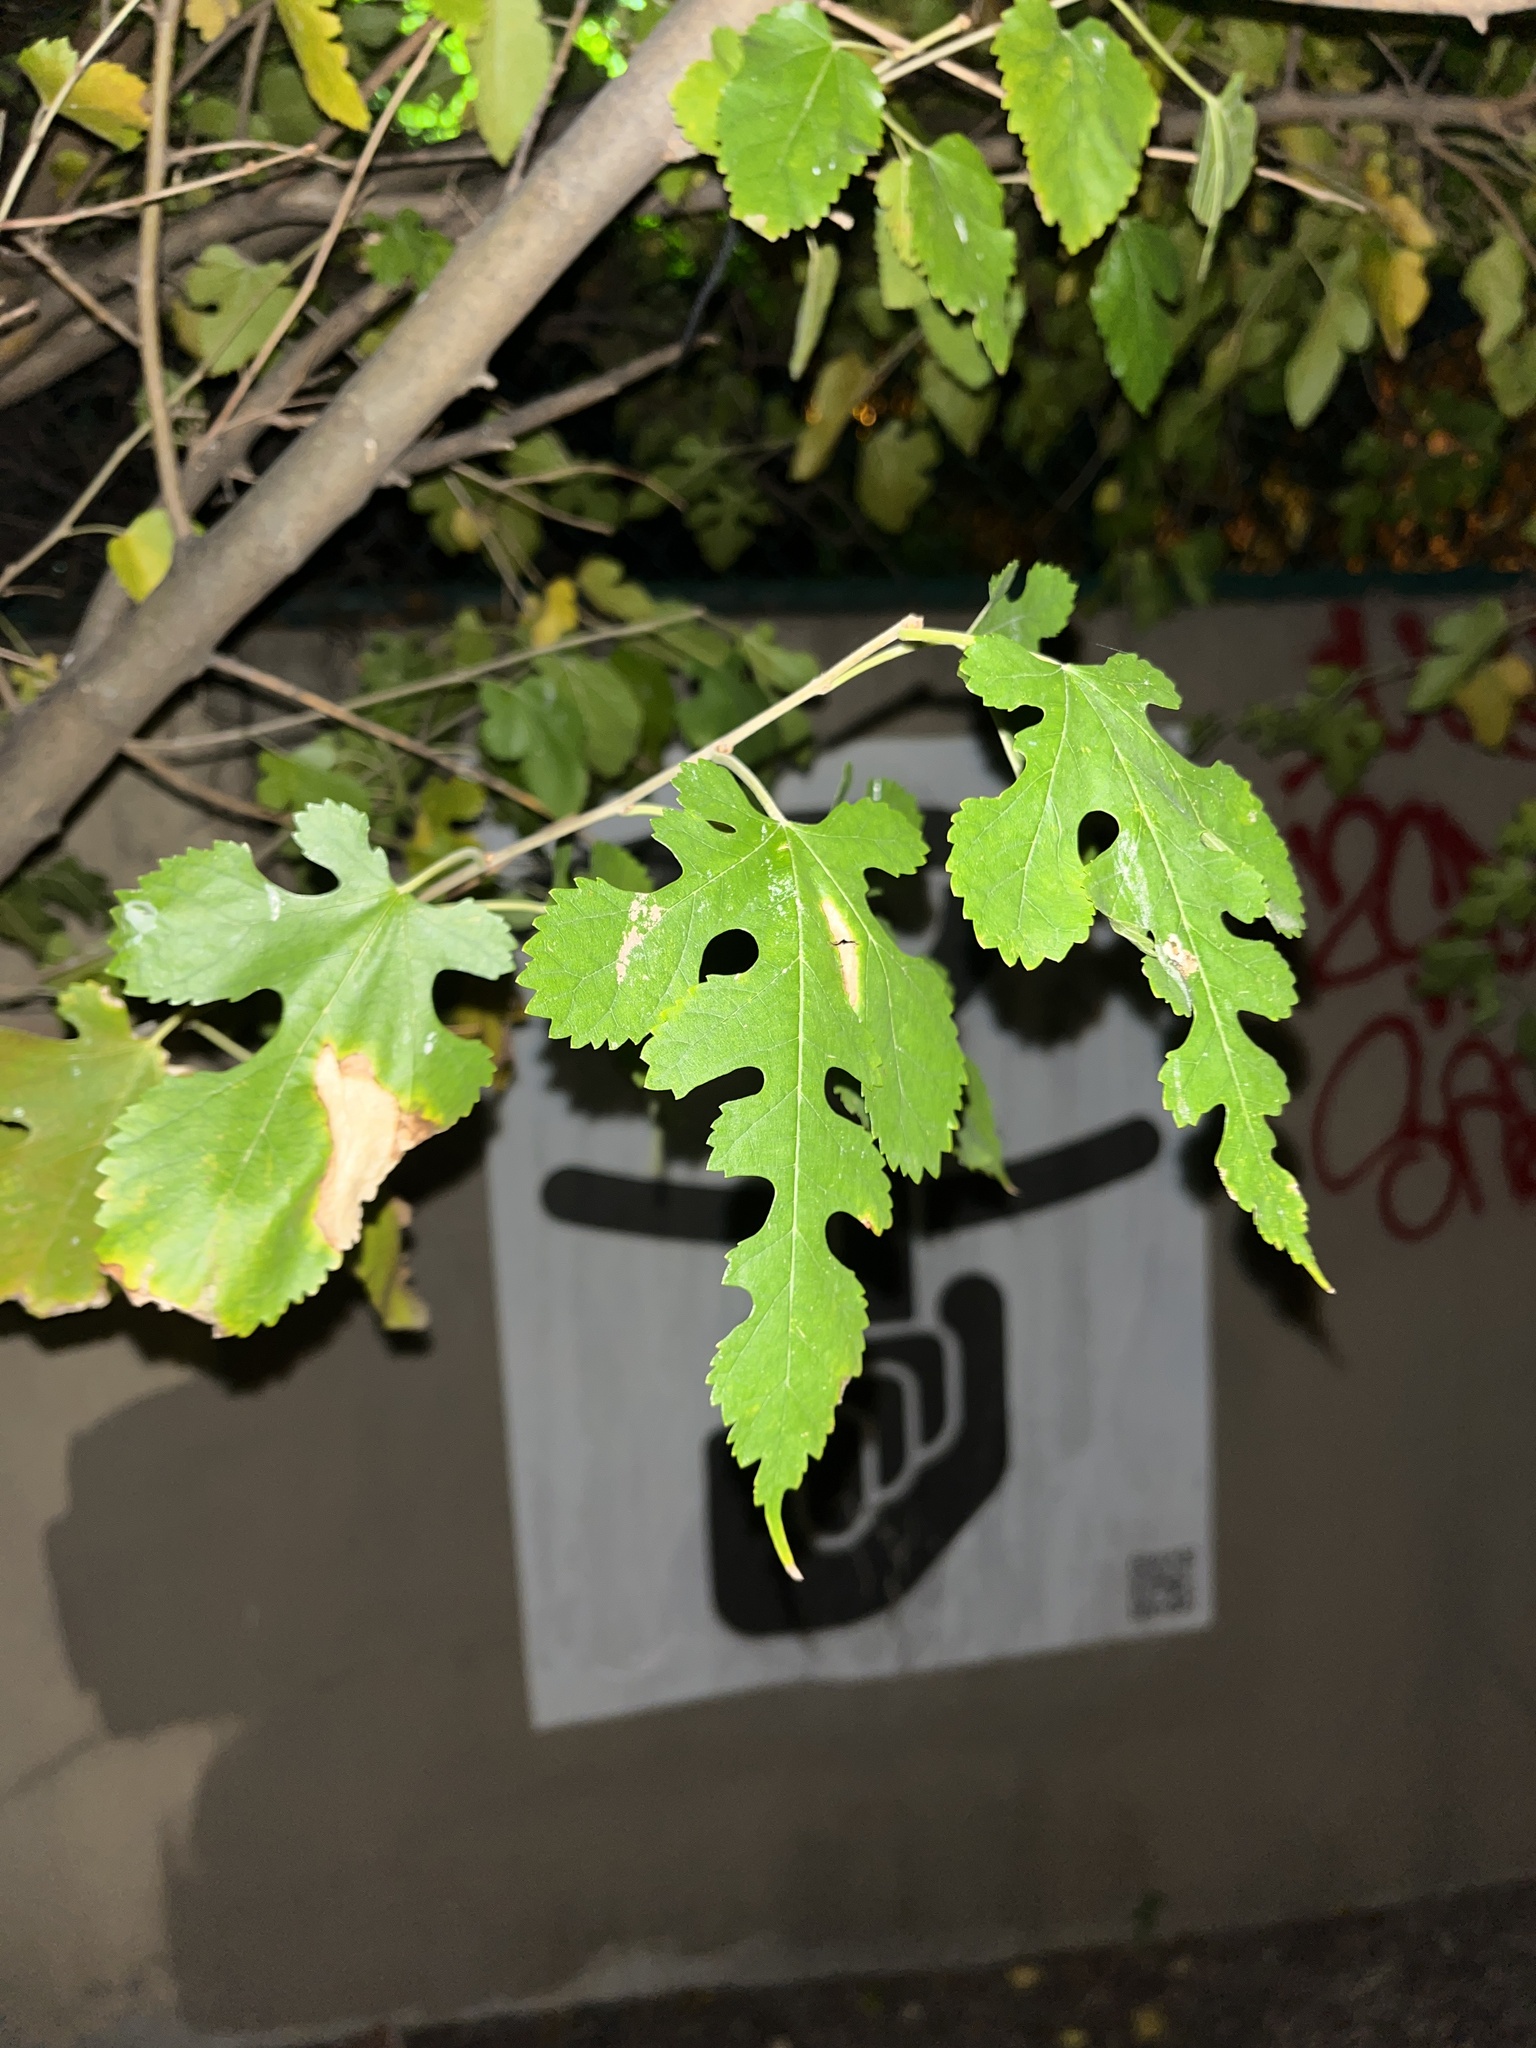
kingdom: Plantae
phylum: Tracheophyta
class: Magnoliopsida
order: Rosales
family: Moraceae
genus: Morus
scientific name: Morus alba
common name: White mulberry
